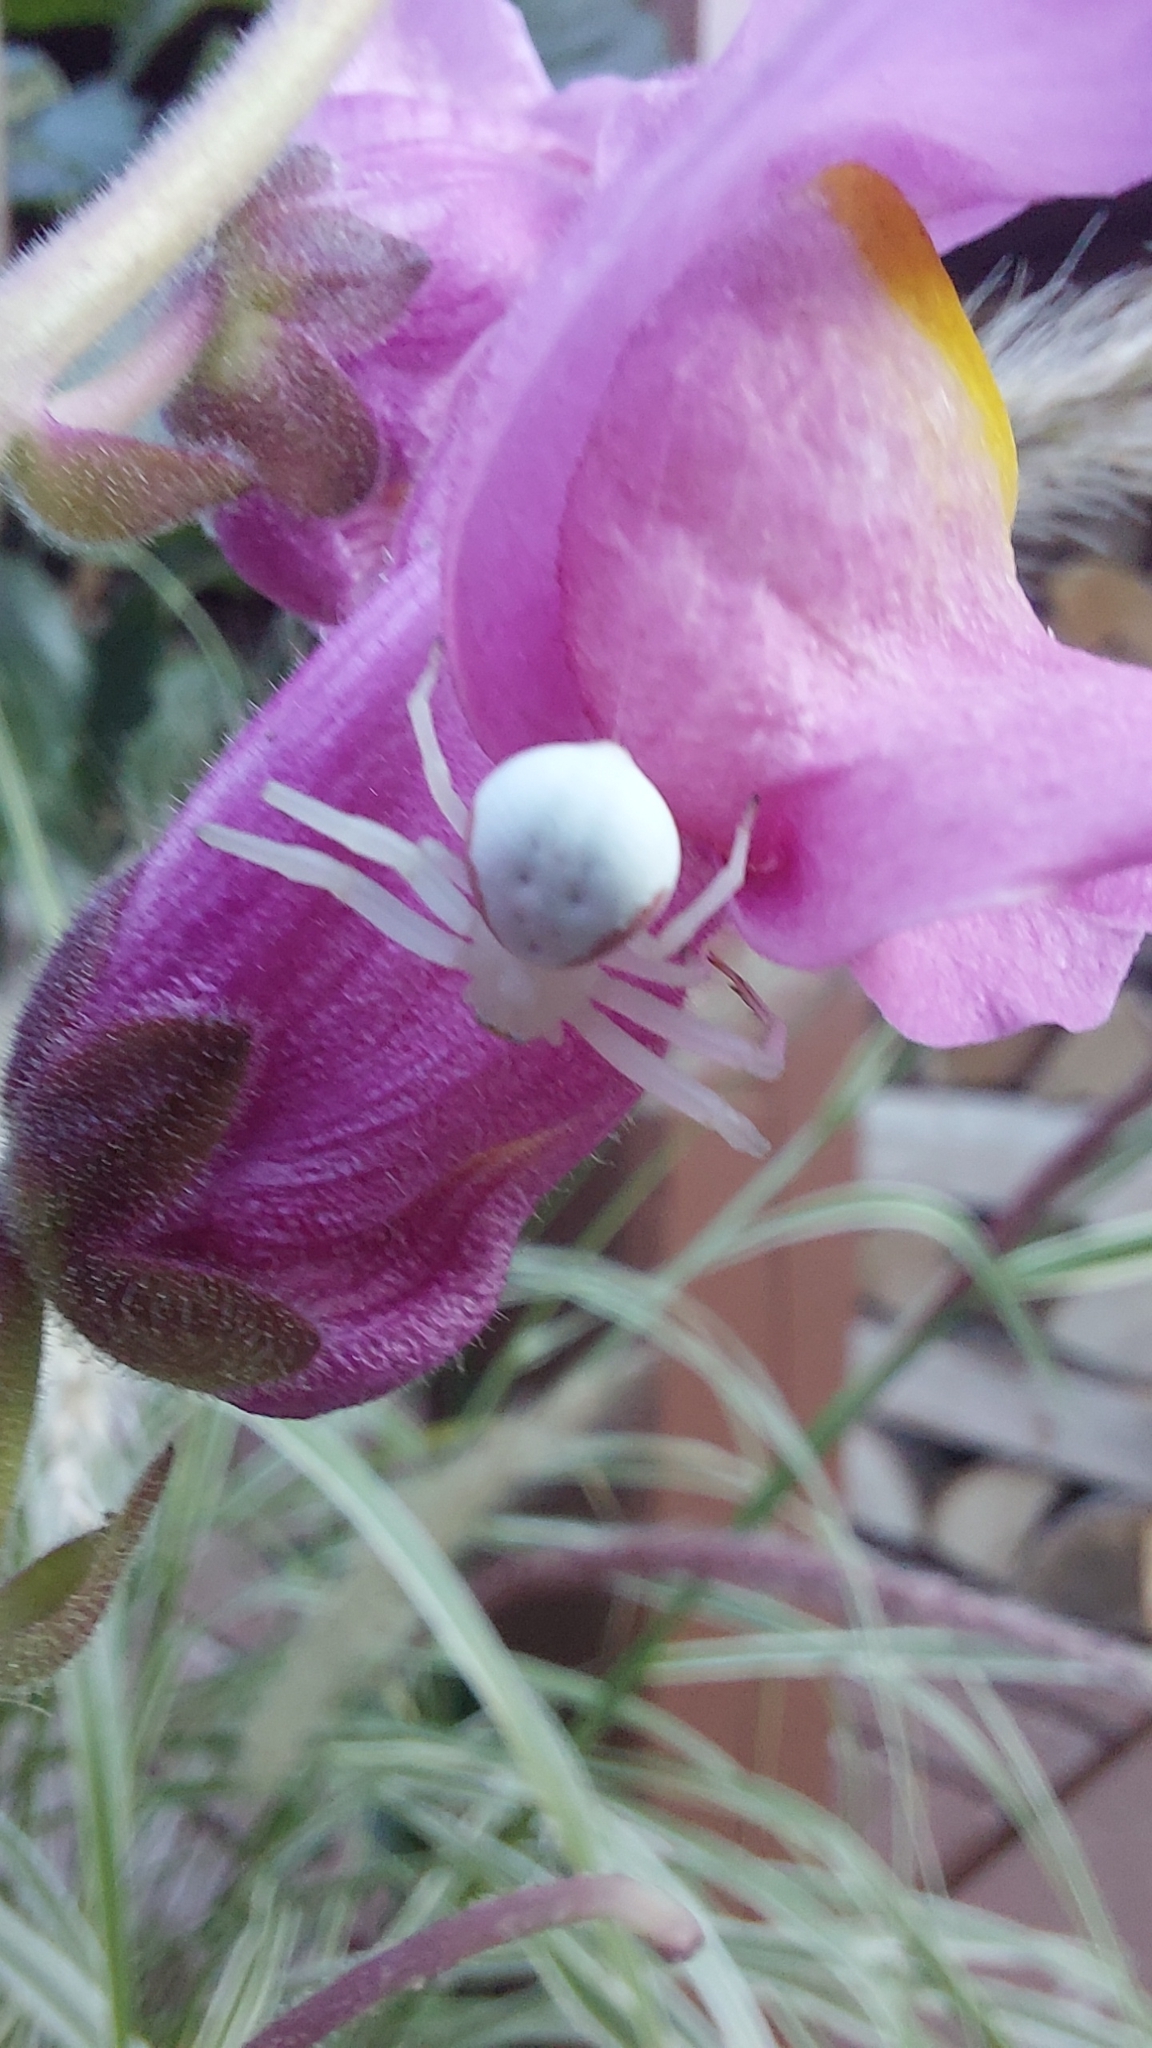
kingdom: Animalia
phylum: Arthropoda
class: Arachnida
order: Araneae
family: Thomisidae
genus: Misumena
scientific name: Misumena vatia
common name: Goldenrod crab spider
